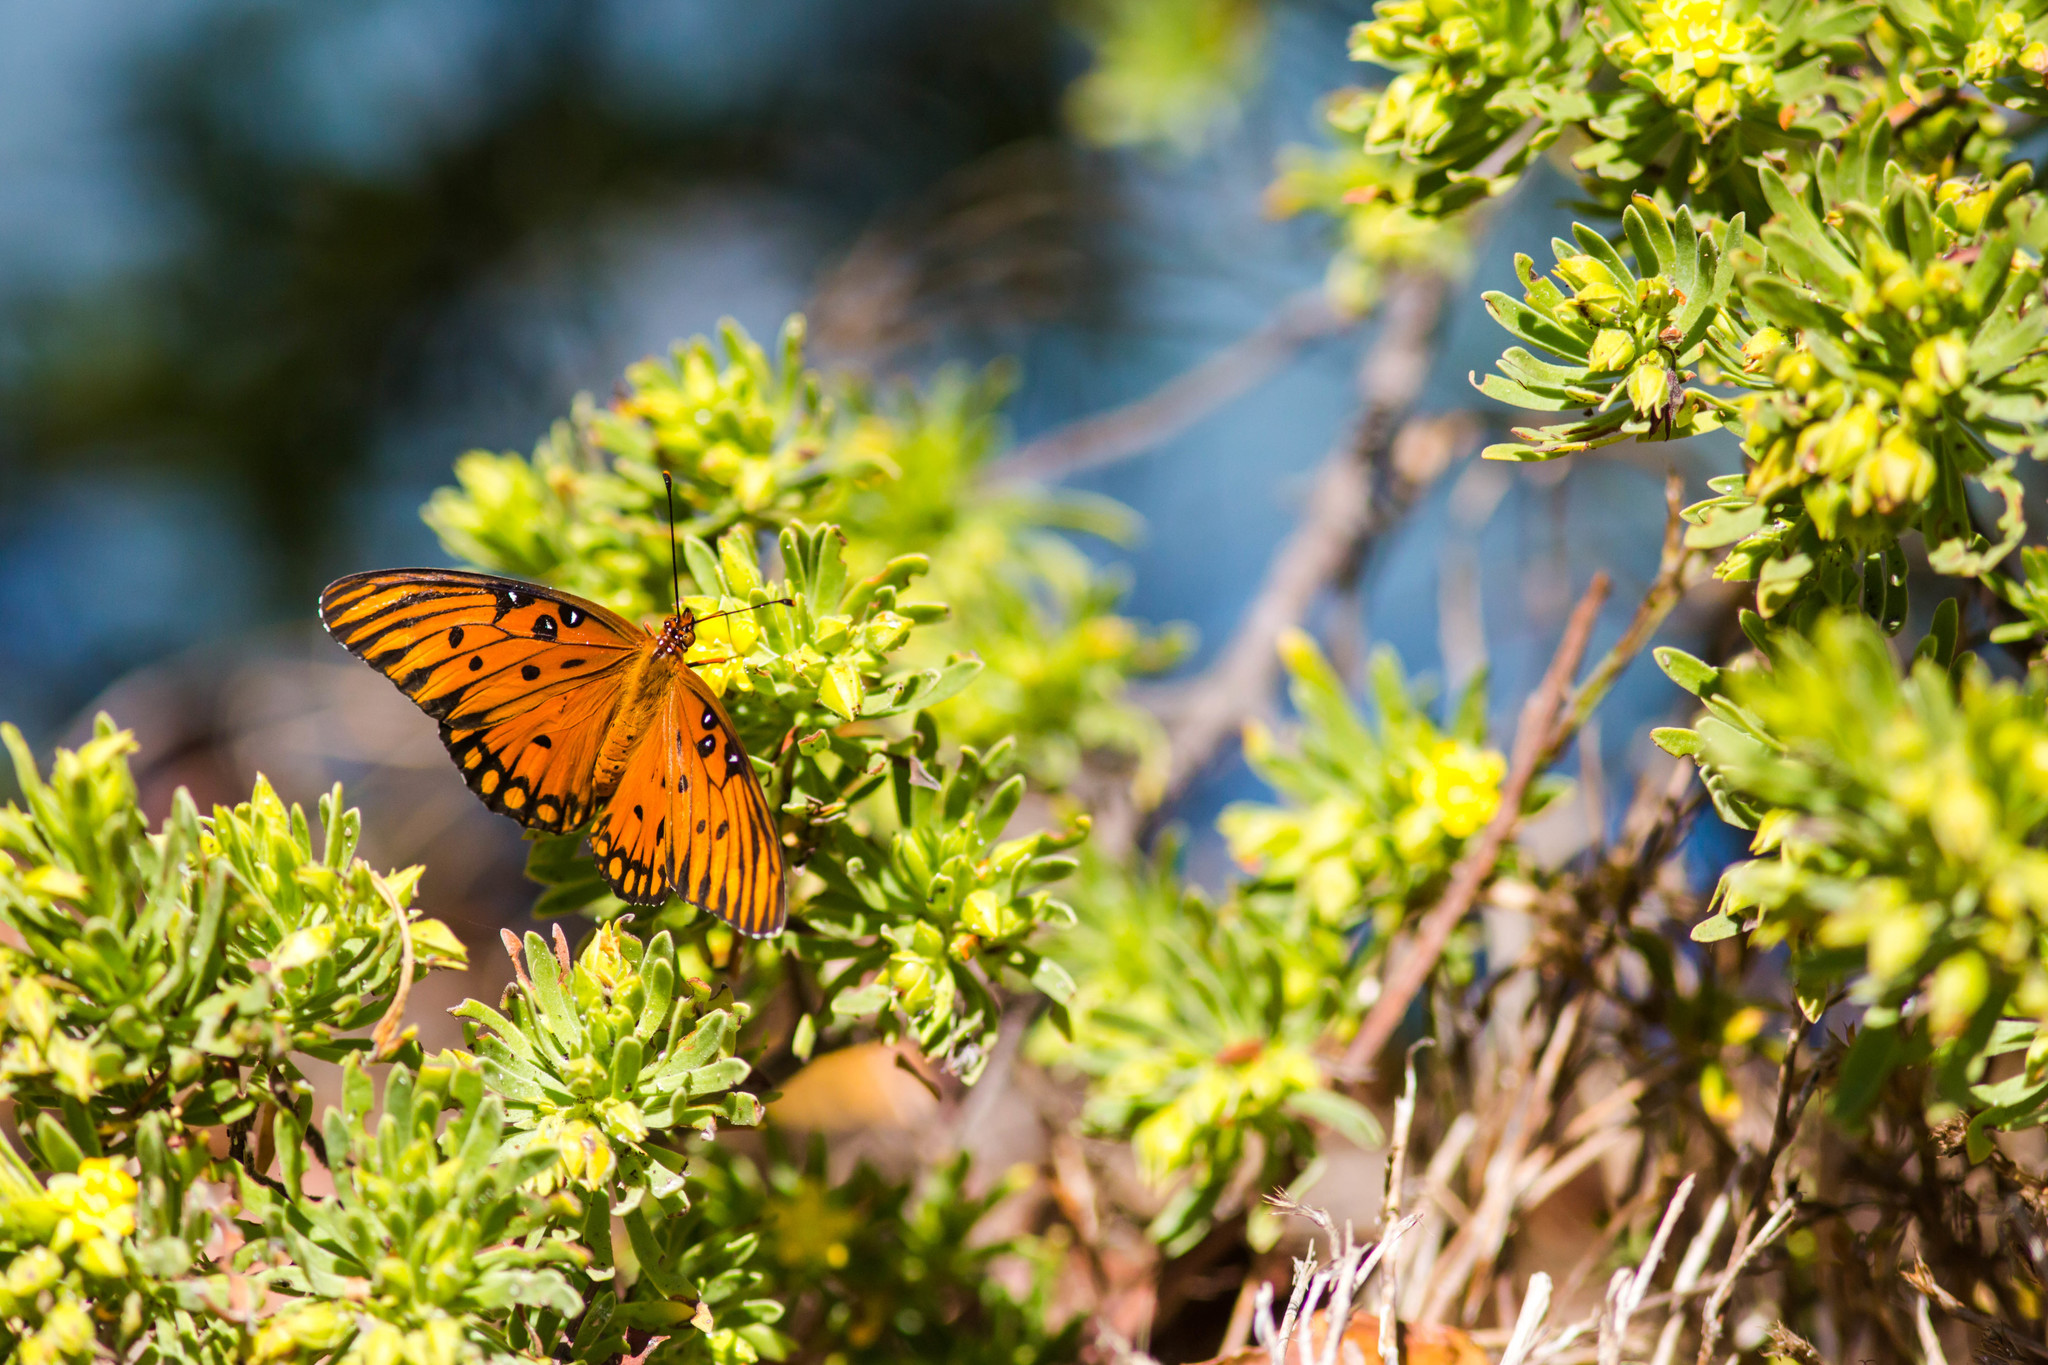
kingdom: Animalia
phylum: Arthropoda
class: Insecta
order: Lepidoptera
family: Nymphalidae
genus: Dione
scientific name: Dione vanillae
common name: Gulf fritillary
